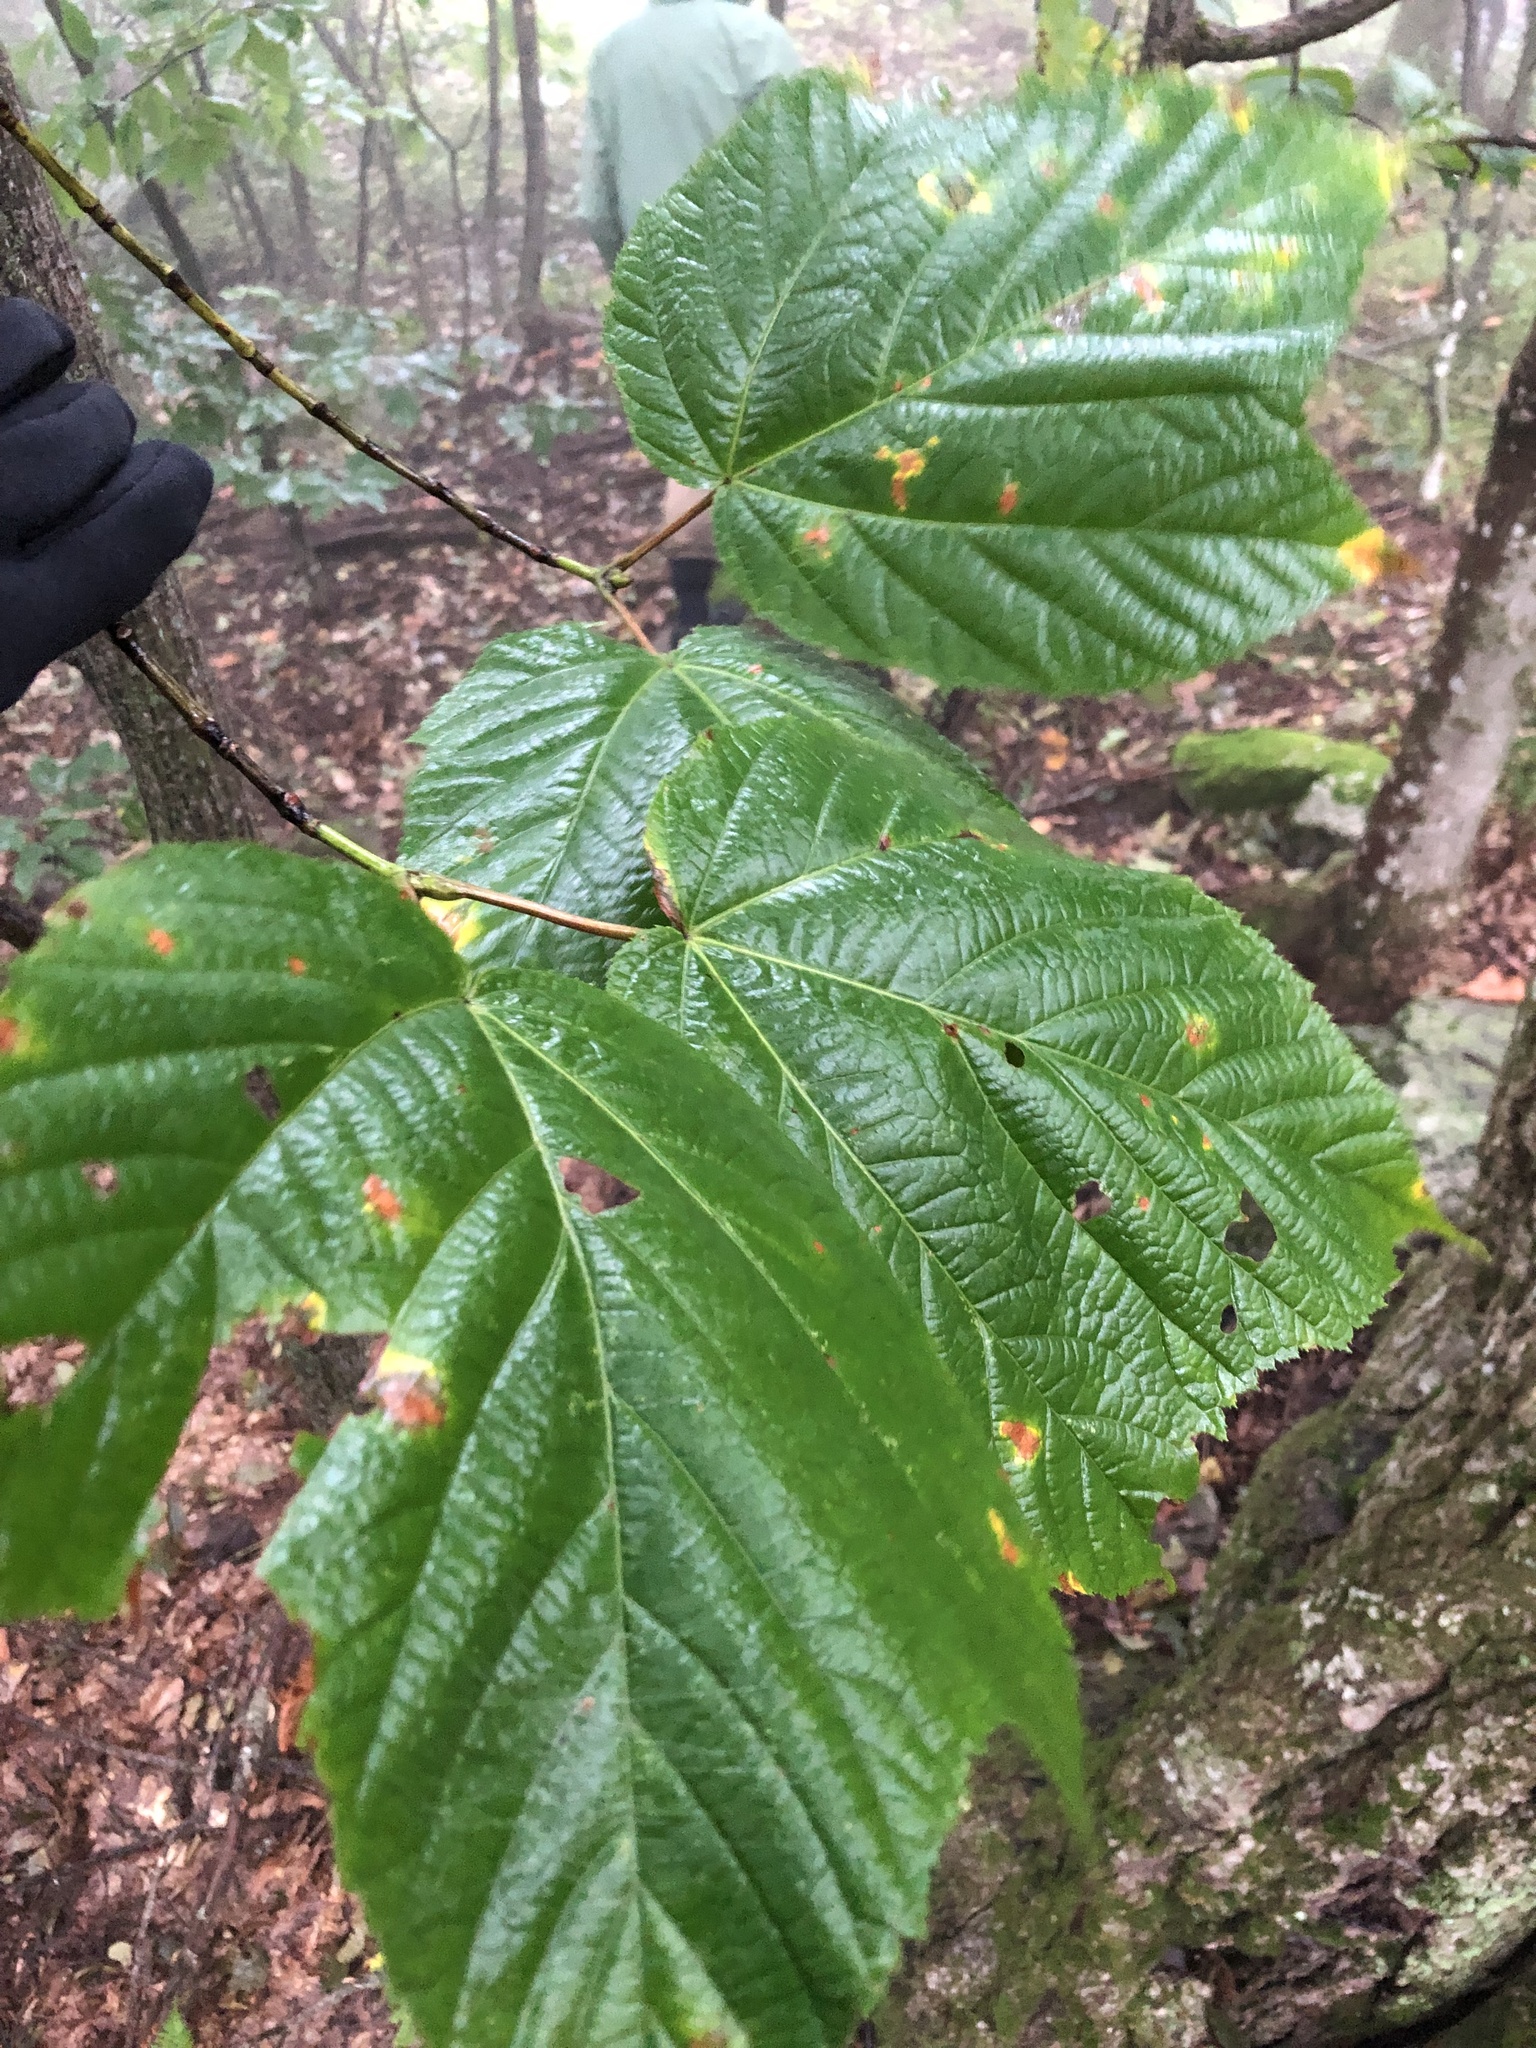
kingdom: Plantae
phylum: Tracheophyta
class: Magnoliopsida
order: Sapindales
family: Sapindaceae
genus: Acer
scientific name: Acer pensylvanicum
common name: Moosewood
